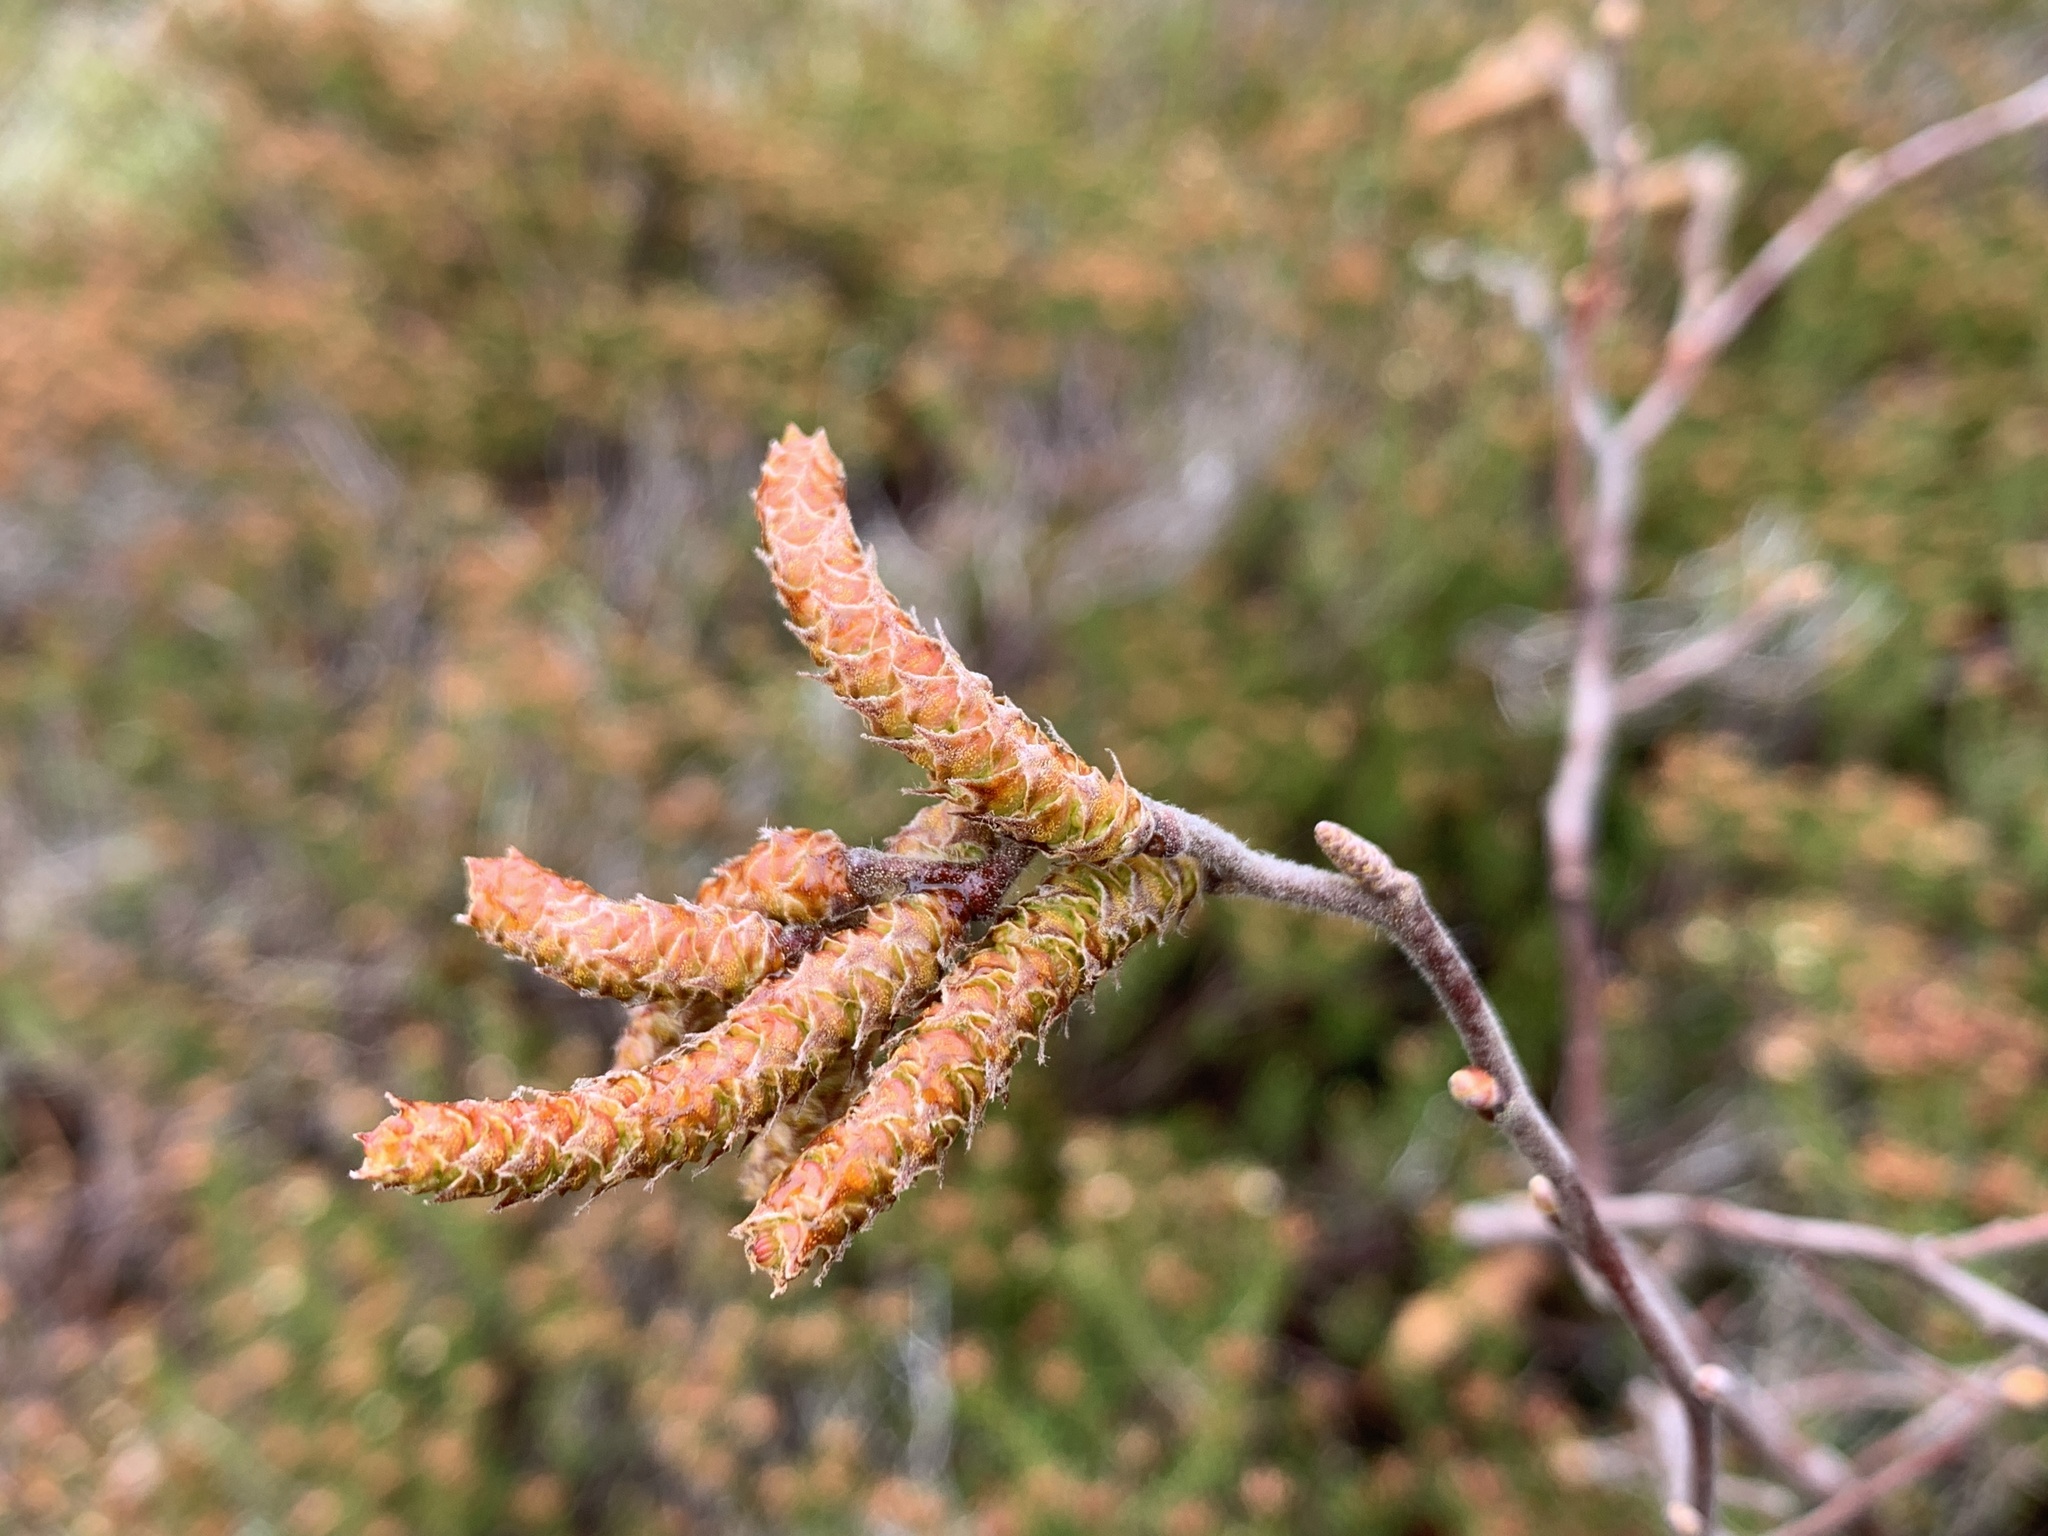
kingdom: Plantae
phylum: Tracheophyta
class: Magnoliopsida
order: Fagales
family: Myricaceae
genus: Comptonia
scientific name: Comptonia peregrina
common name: Sweet-fern
